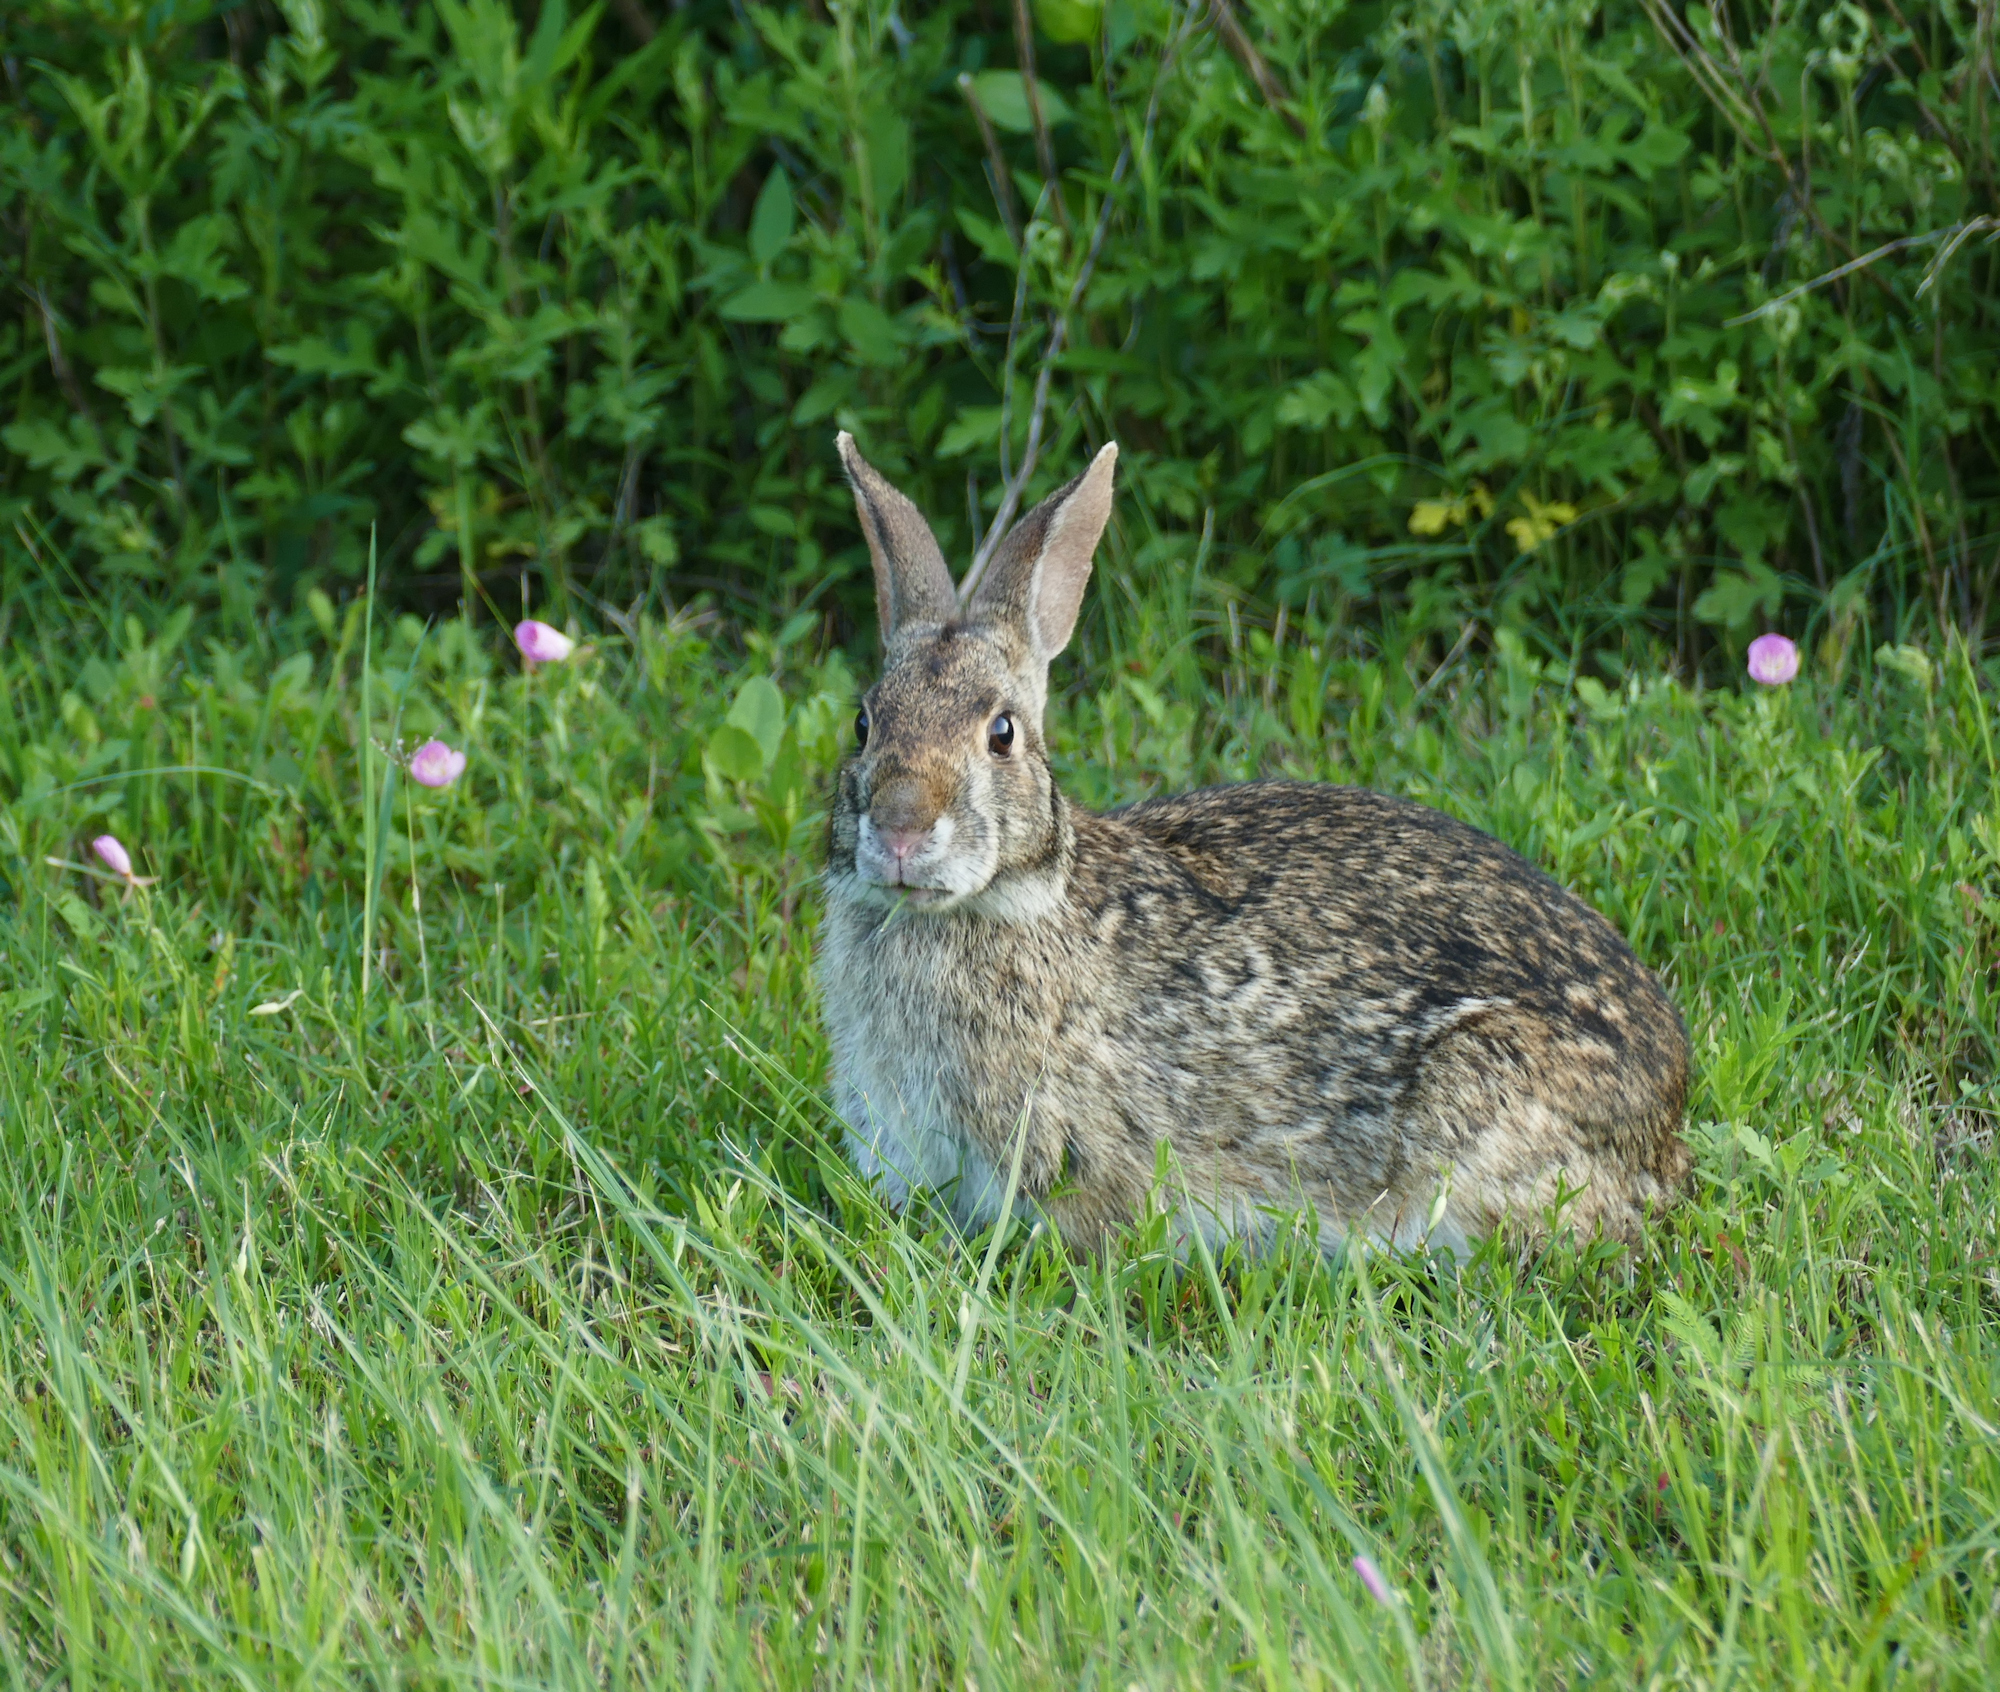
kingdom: Animalia
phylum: Chordata
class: Mammalia
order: Lagomorpha
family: Leporidae
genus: Sylvilagus
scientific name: Sylvilagus aquaticus
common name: Swamp rabbit
